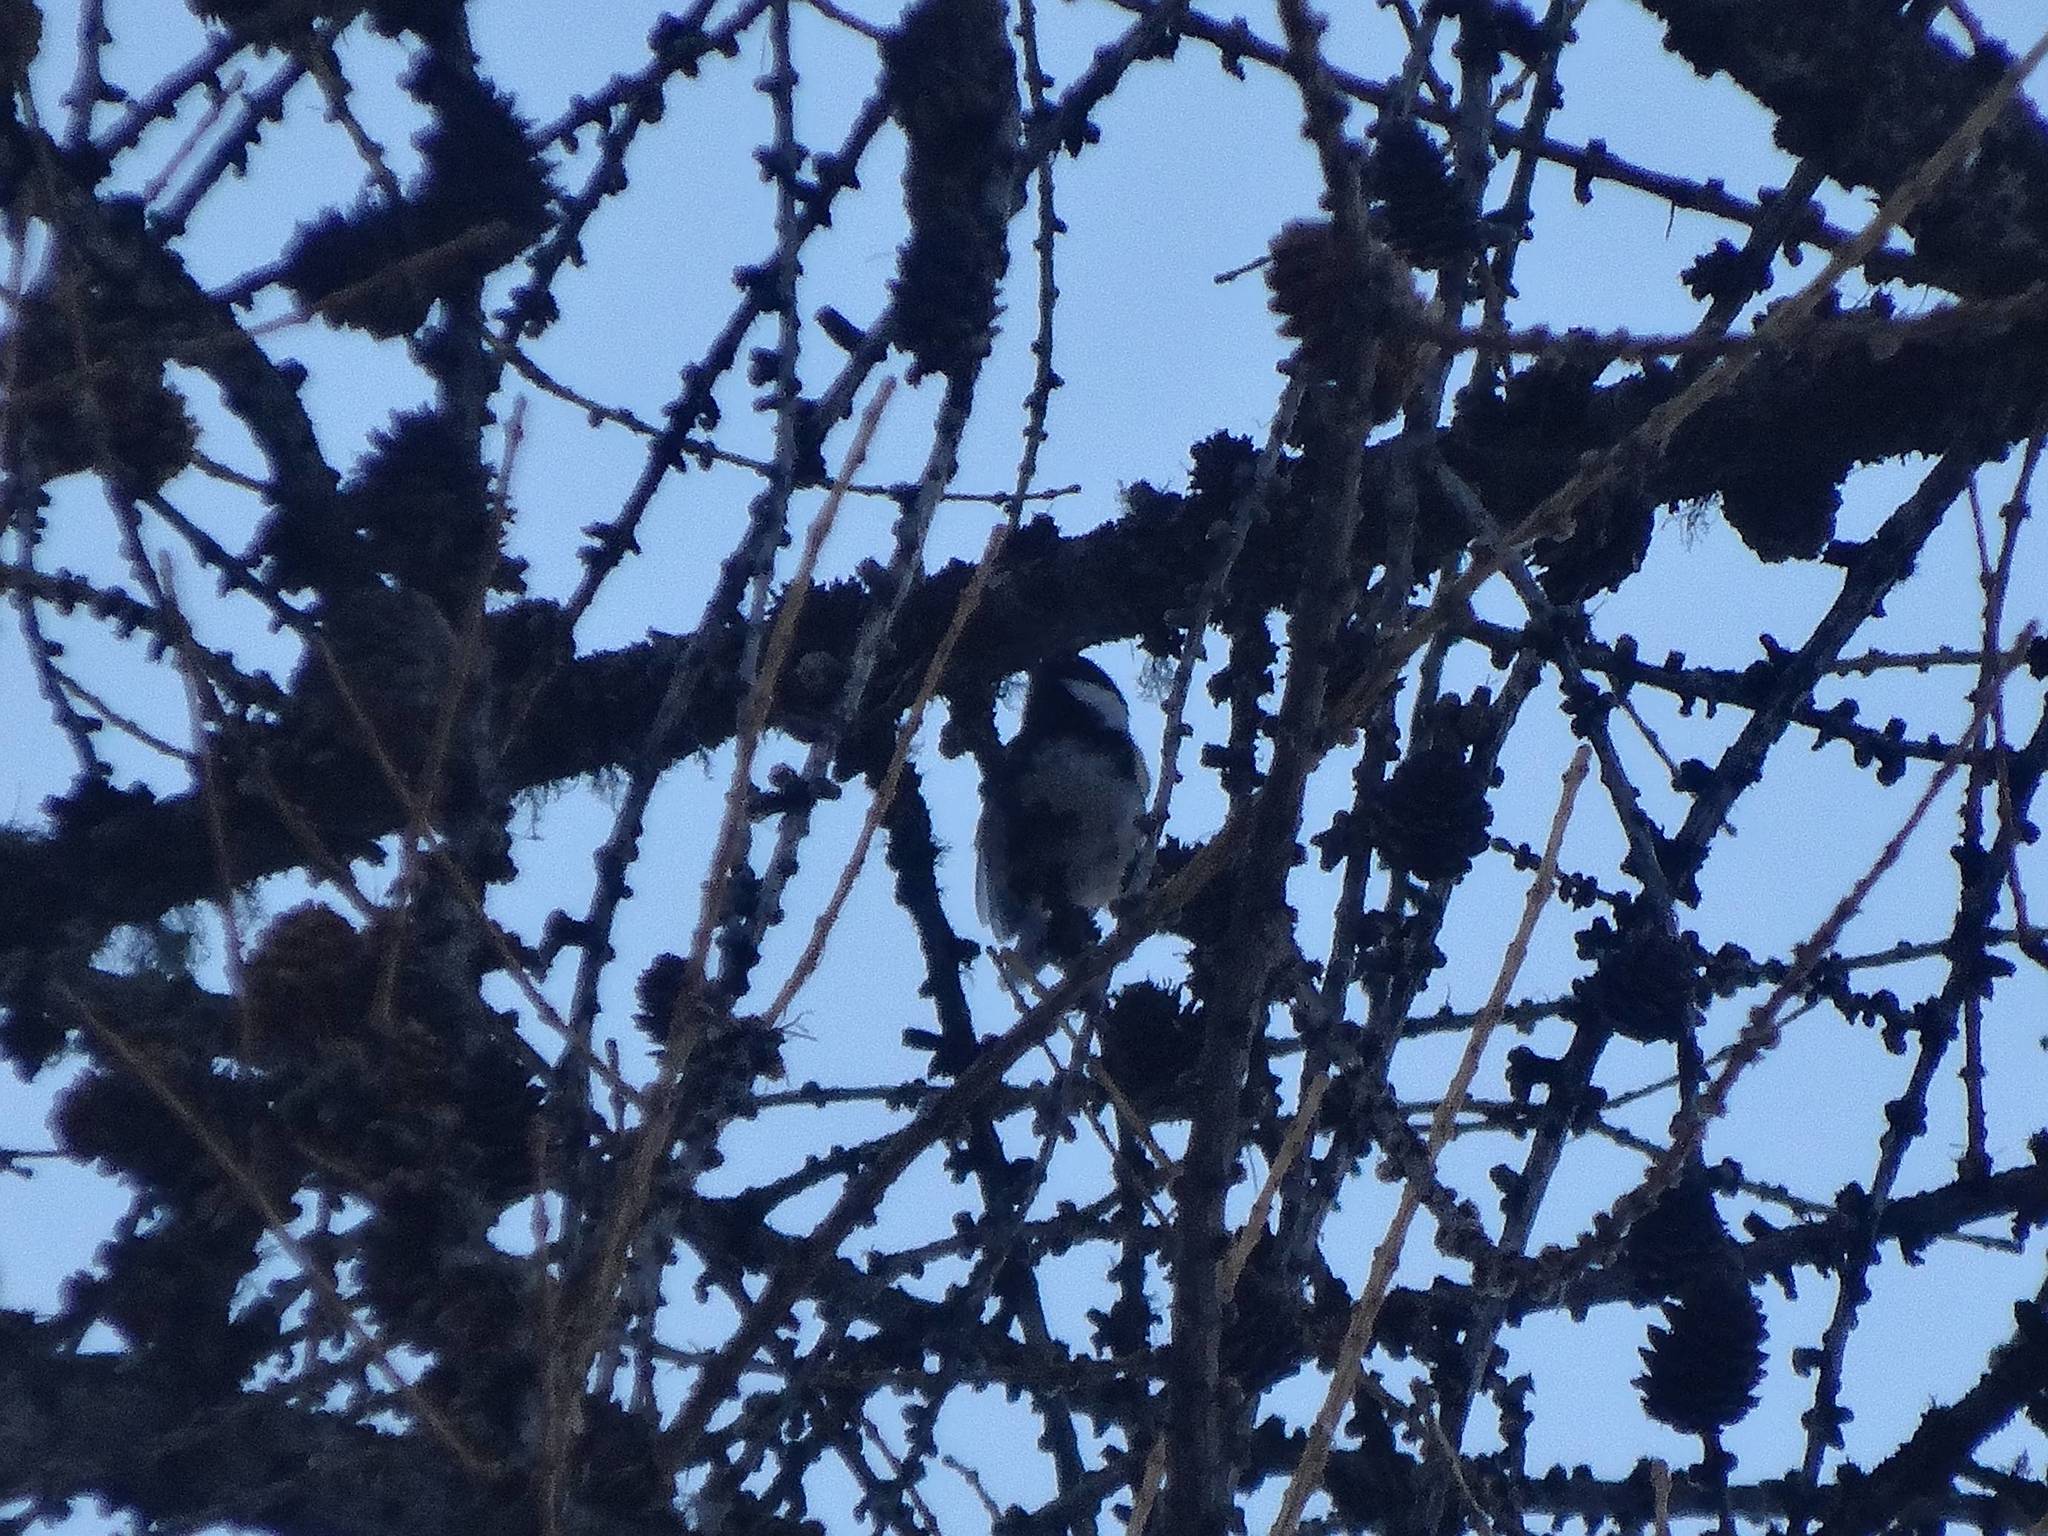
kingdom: Animalia
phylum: Chordata
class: Aves
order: Passeriformes
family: Paridae
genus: Periparus
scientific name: Periparus ater
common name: Coal tit
